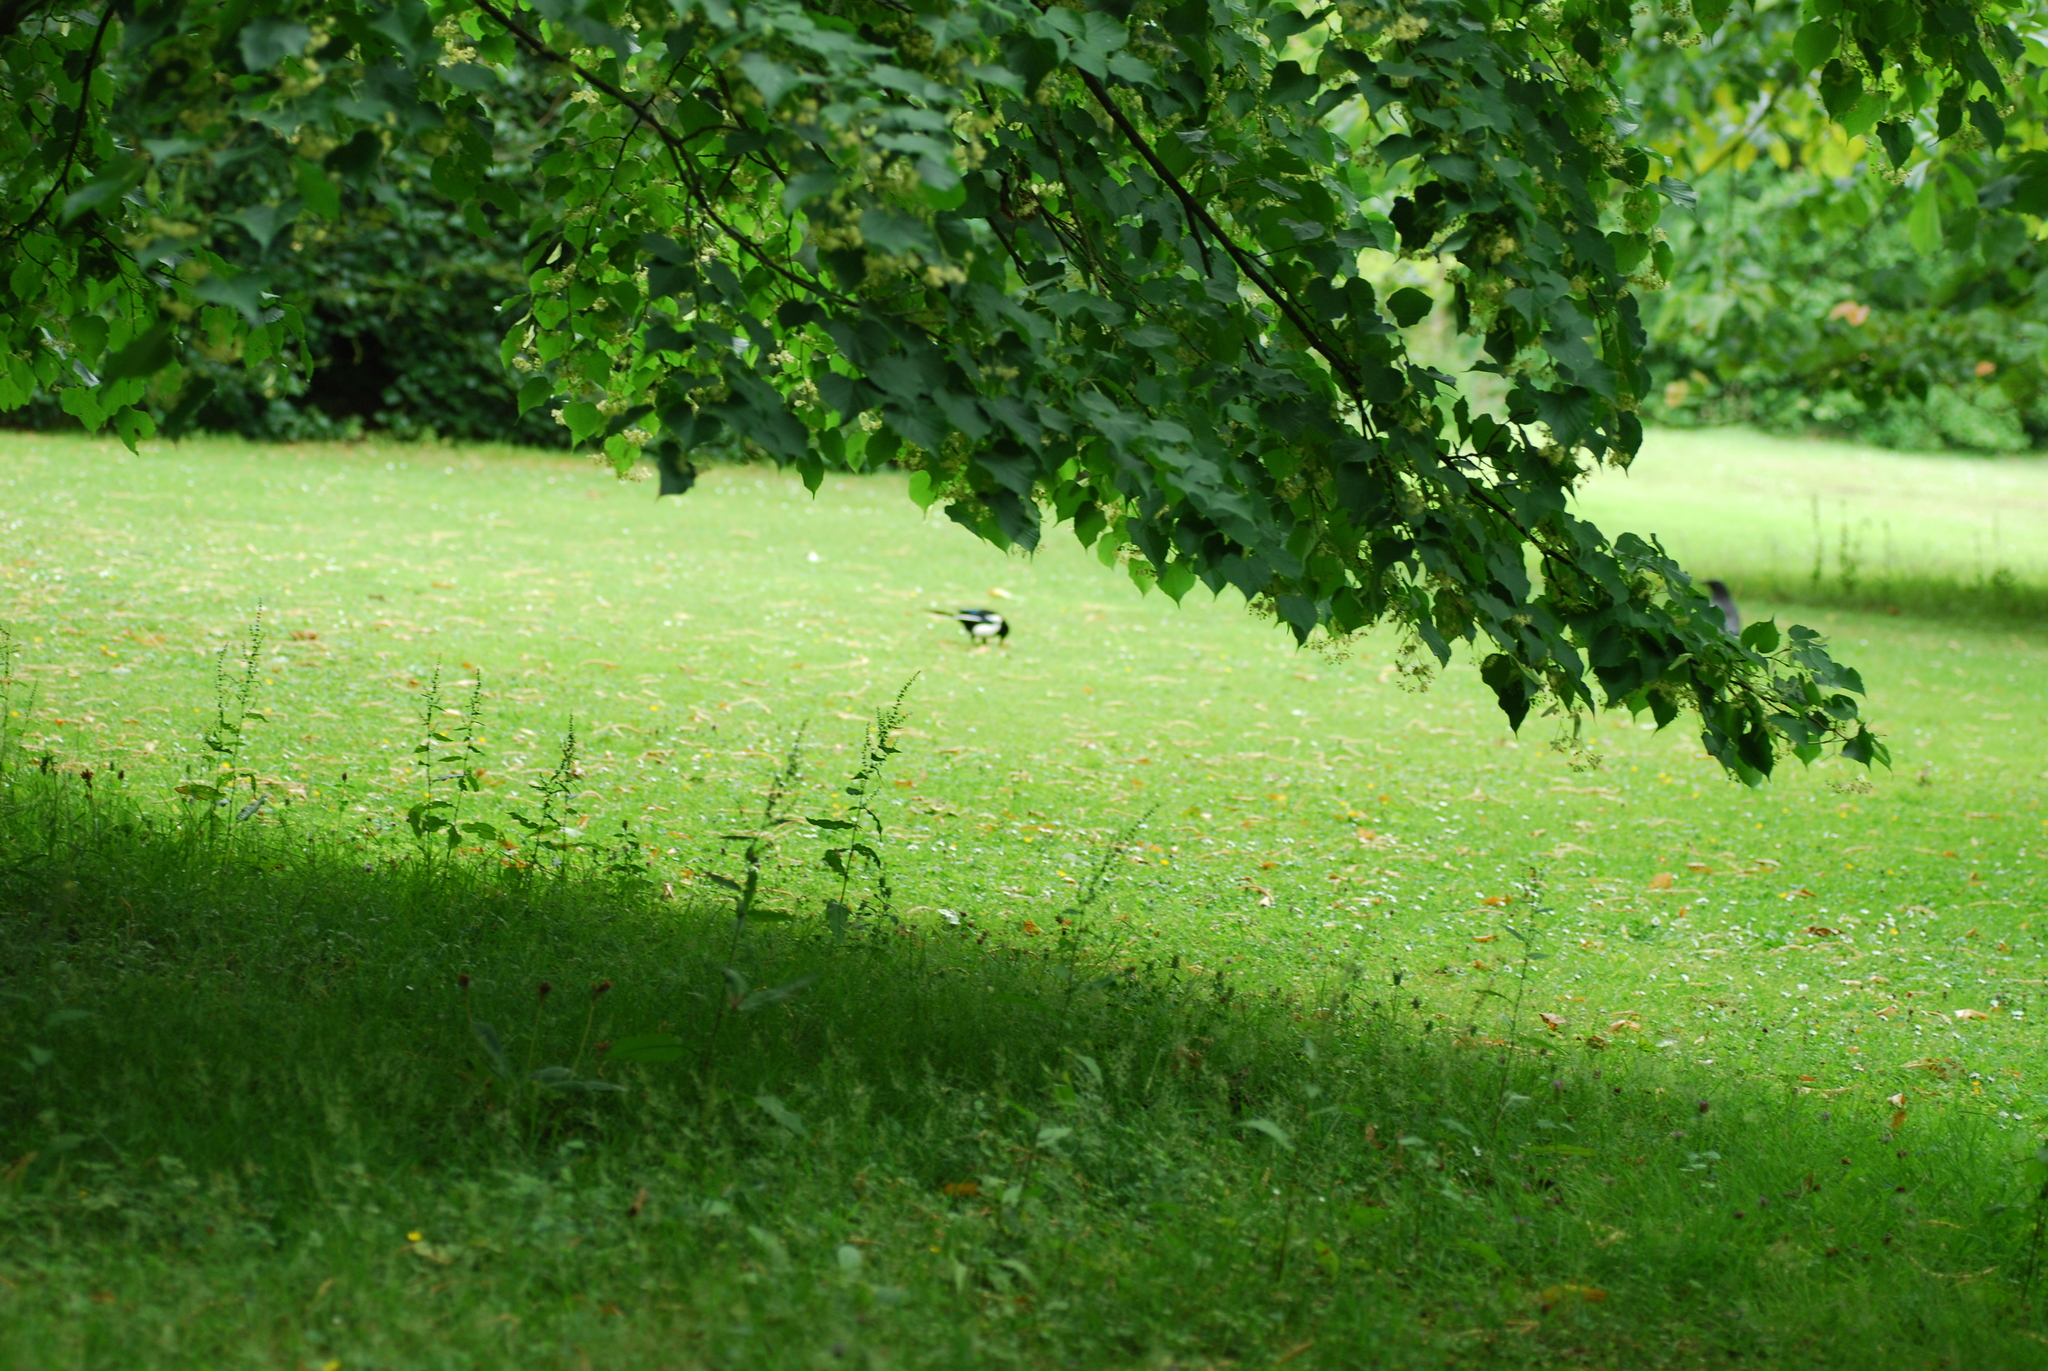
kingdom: Animalia
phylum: Chordata
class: Aves
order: Passeriformes
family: Corvidae
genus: Pica
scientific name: Pica pica
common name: Eurasian magpie
